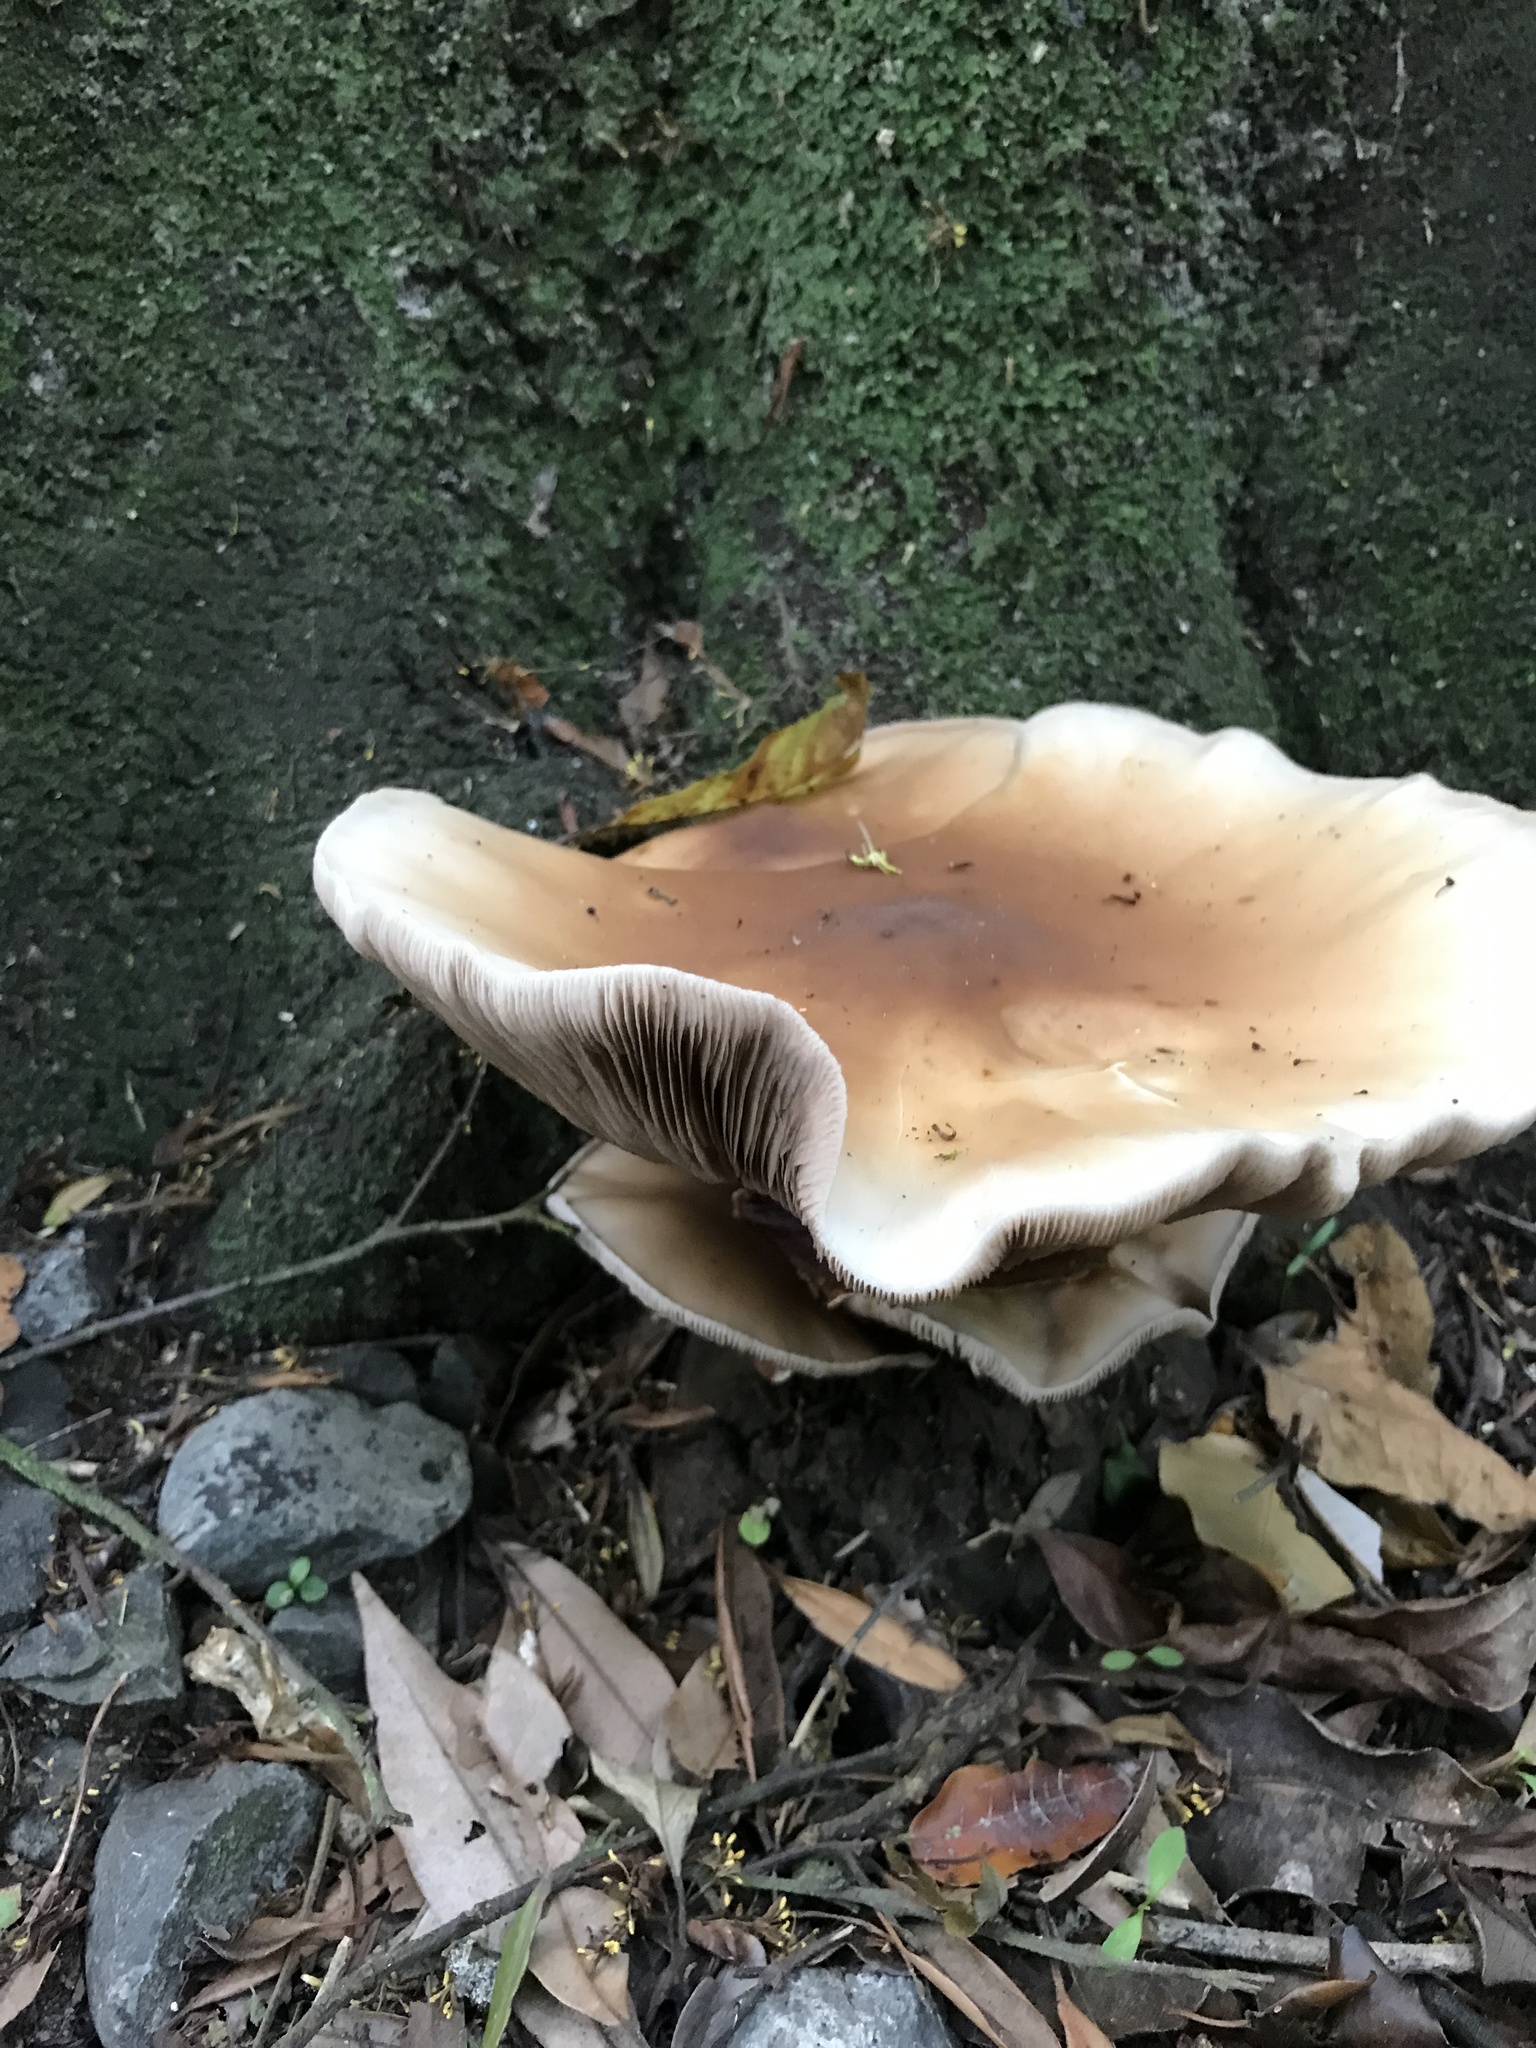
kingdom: Fungi
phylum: Basidiomycota
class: Agaricomycetes
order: Agaricales
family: Tubariaceae
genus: Cyclocybe
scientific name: Cyclocybe parasitica
